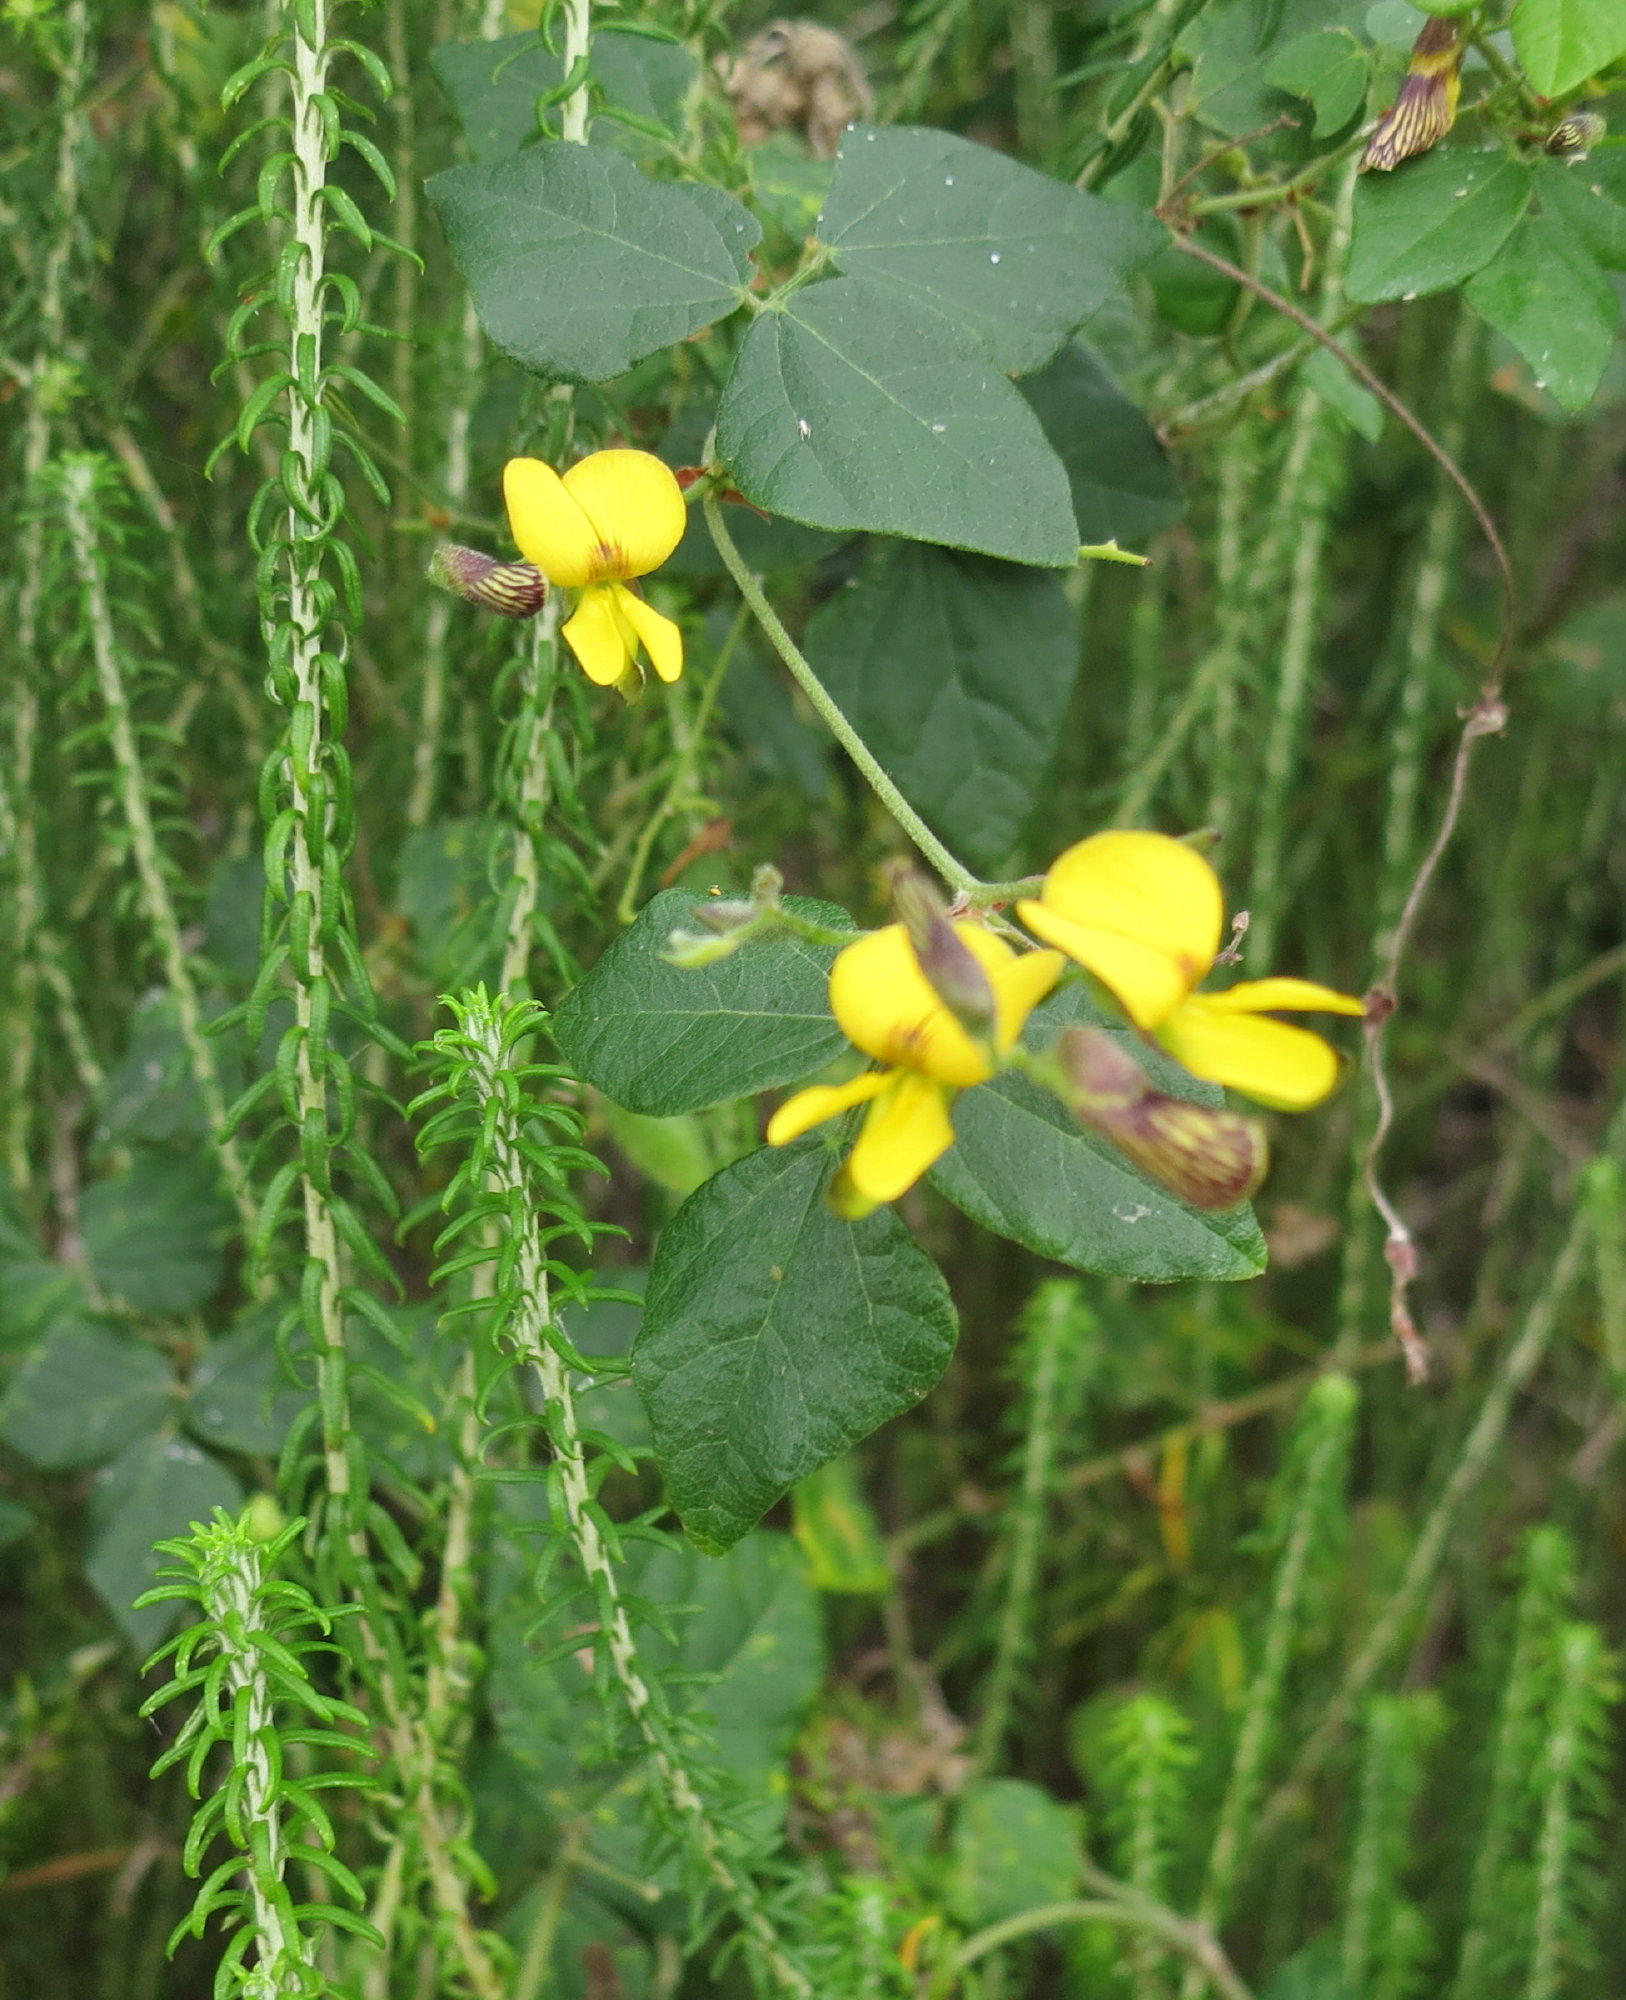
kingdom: Plantae
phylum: Tracheophyta
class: Magnoliopsida
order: Fabales
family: Fabaceae
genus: Rhynchosia
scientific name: Rhynchosia caribaea
